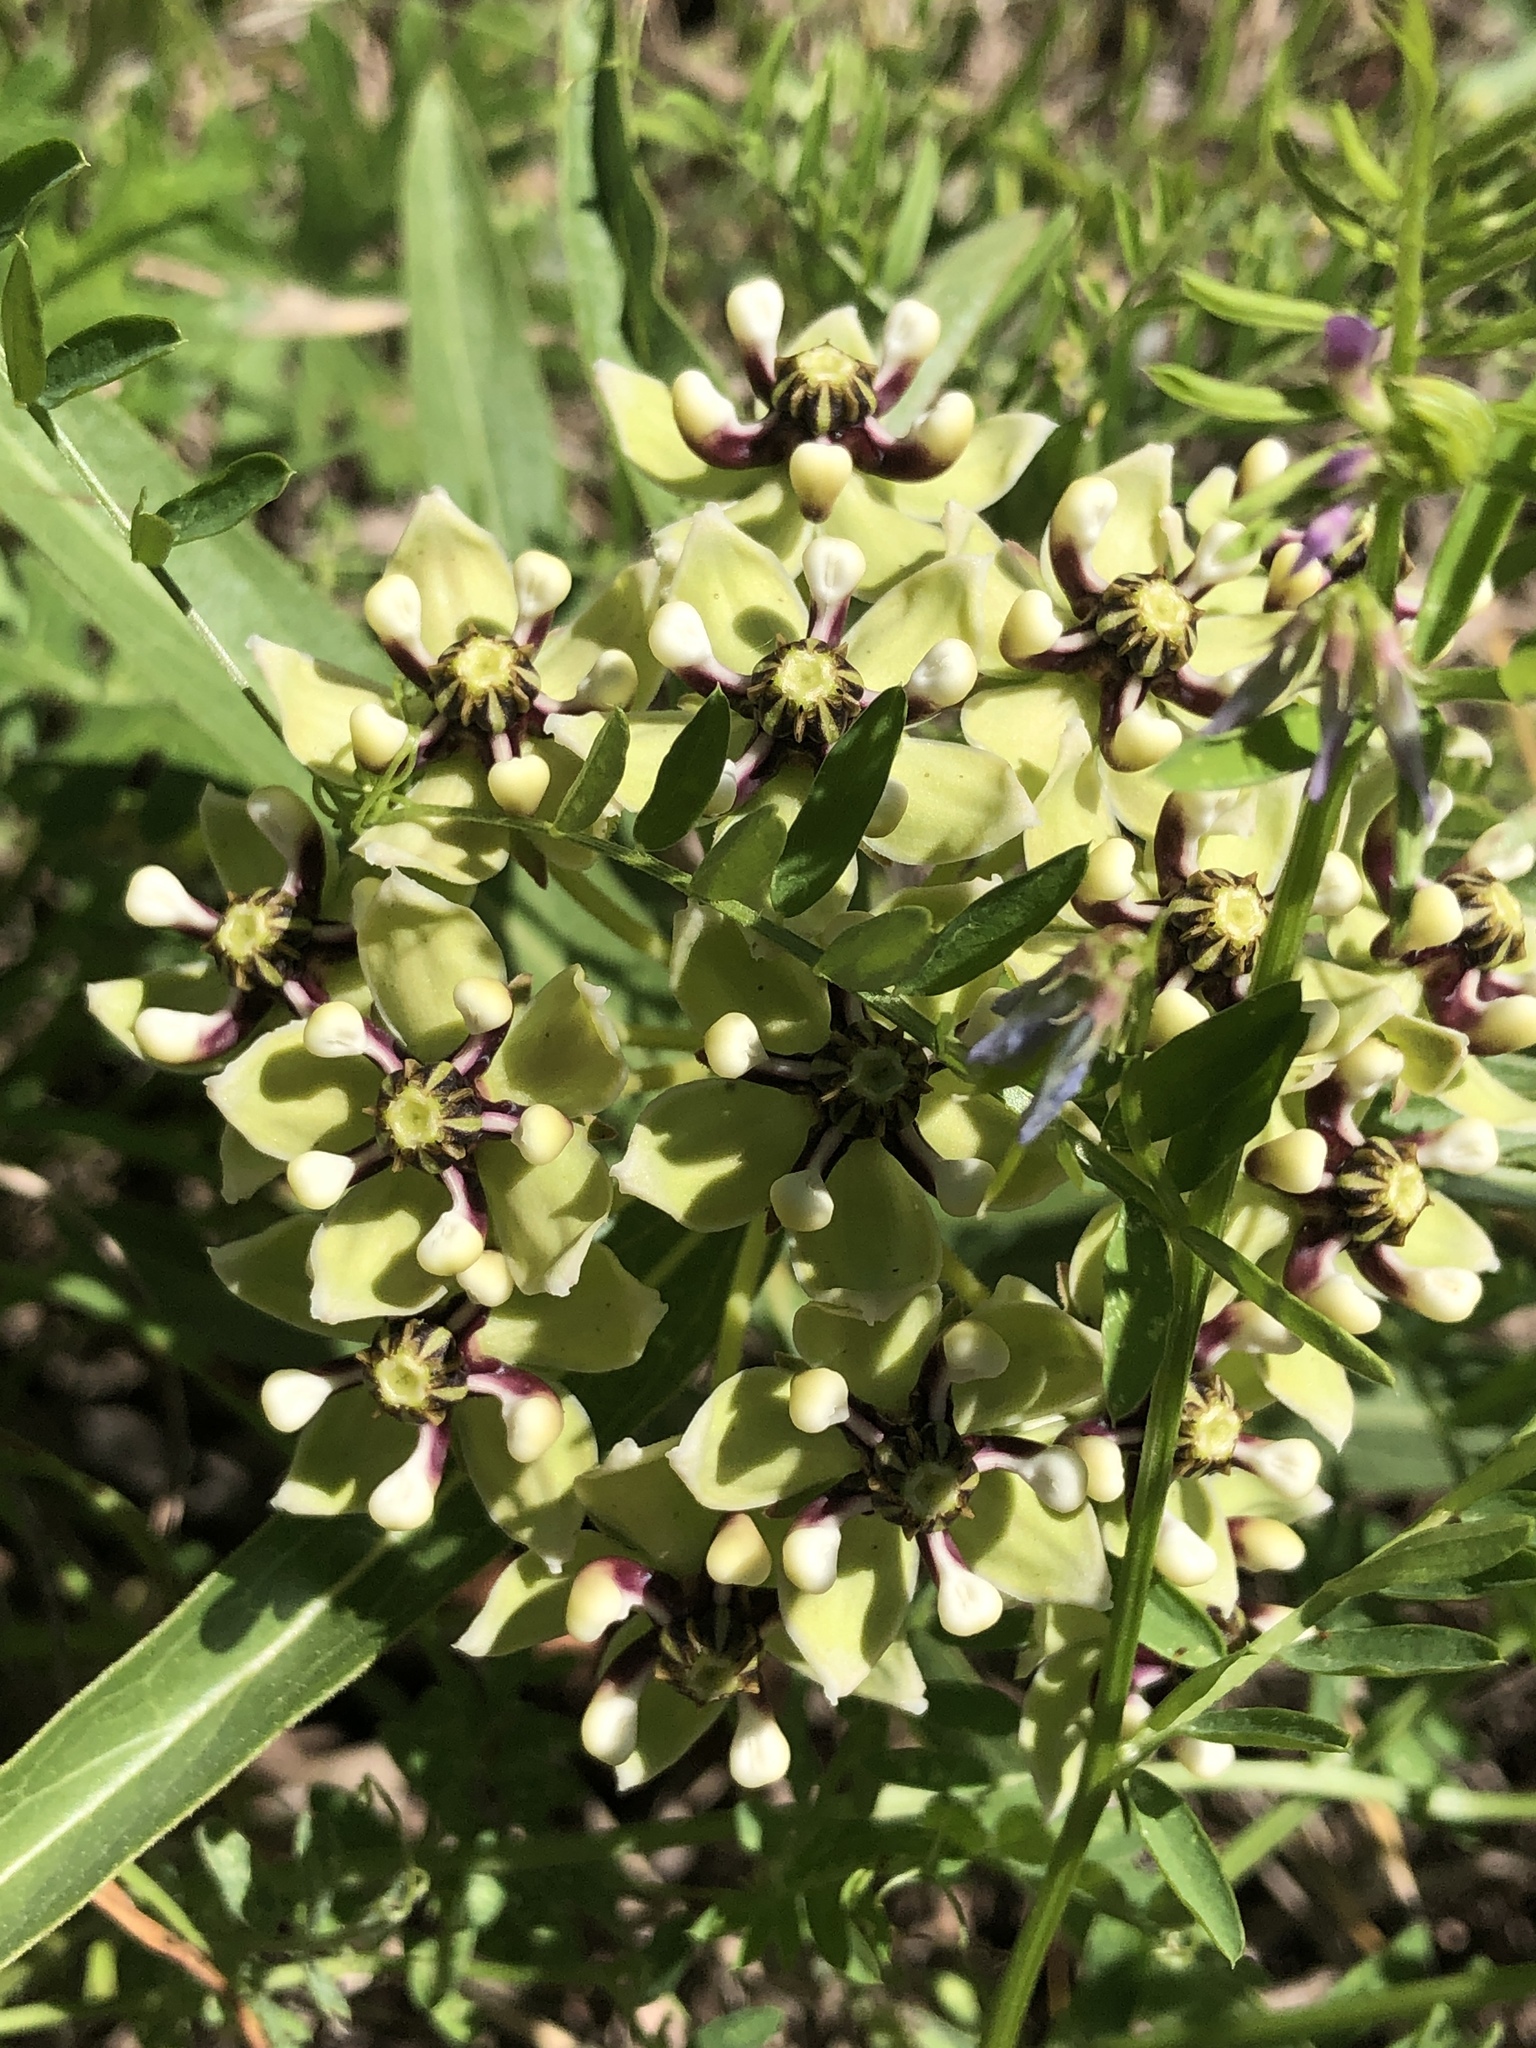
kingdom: Plantae
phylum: Tracheophyta
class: Magnoliopsida
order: Gentianales
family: Apocynaceae
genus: Asclepias
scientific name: Asclepias asperula
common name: Antelope horns
